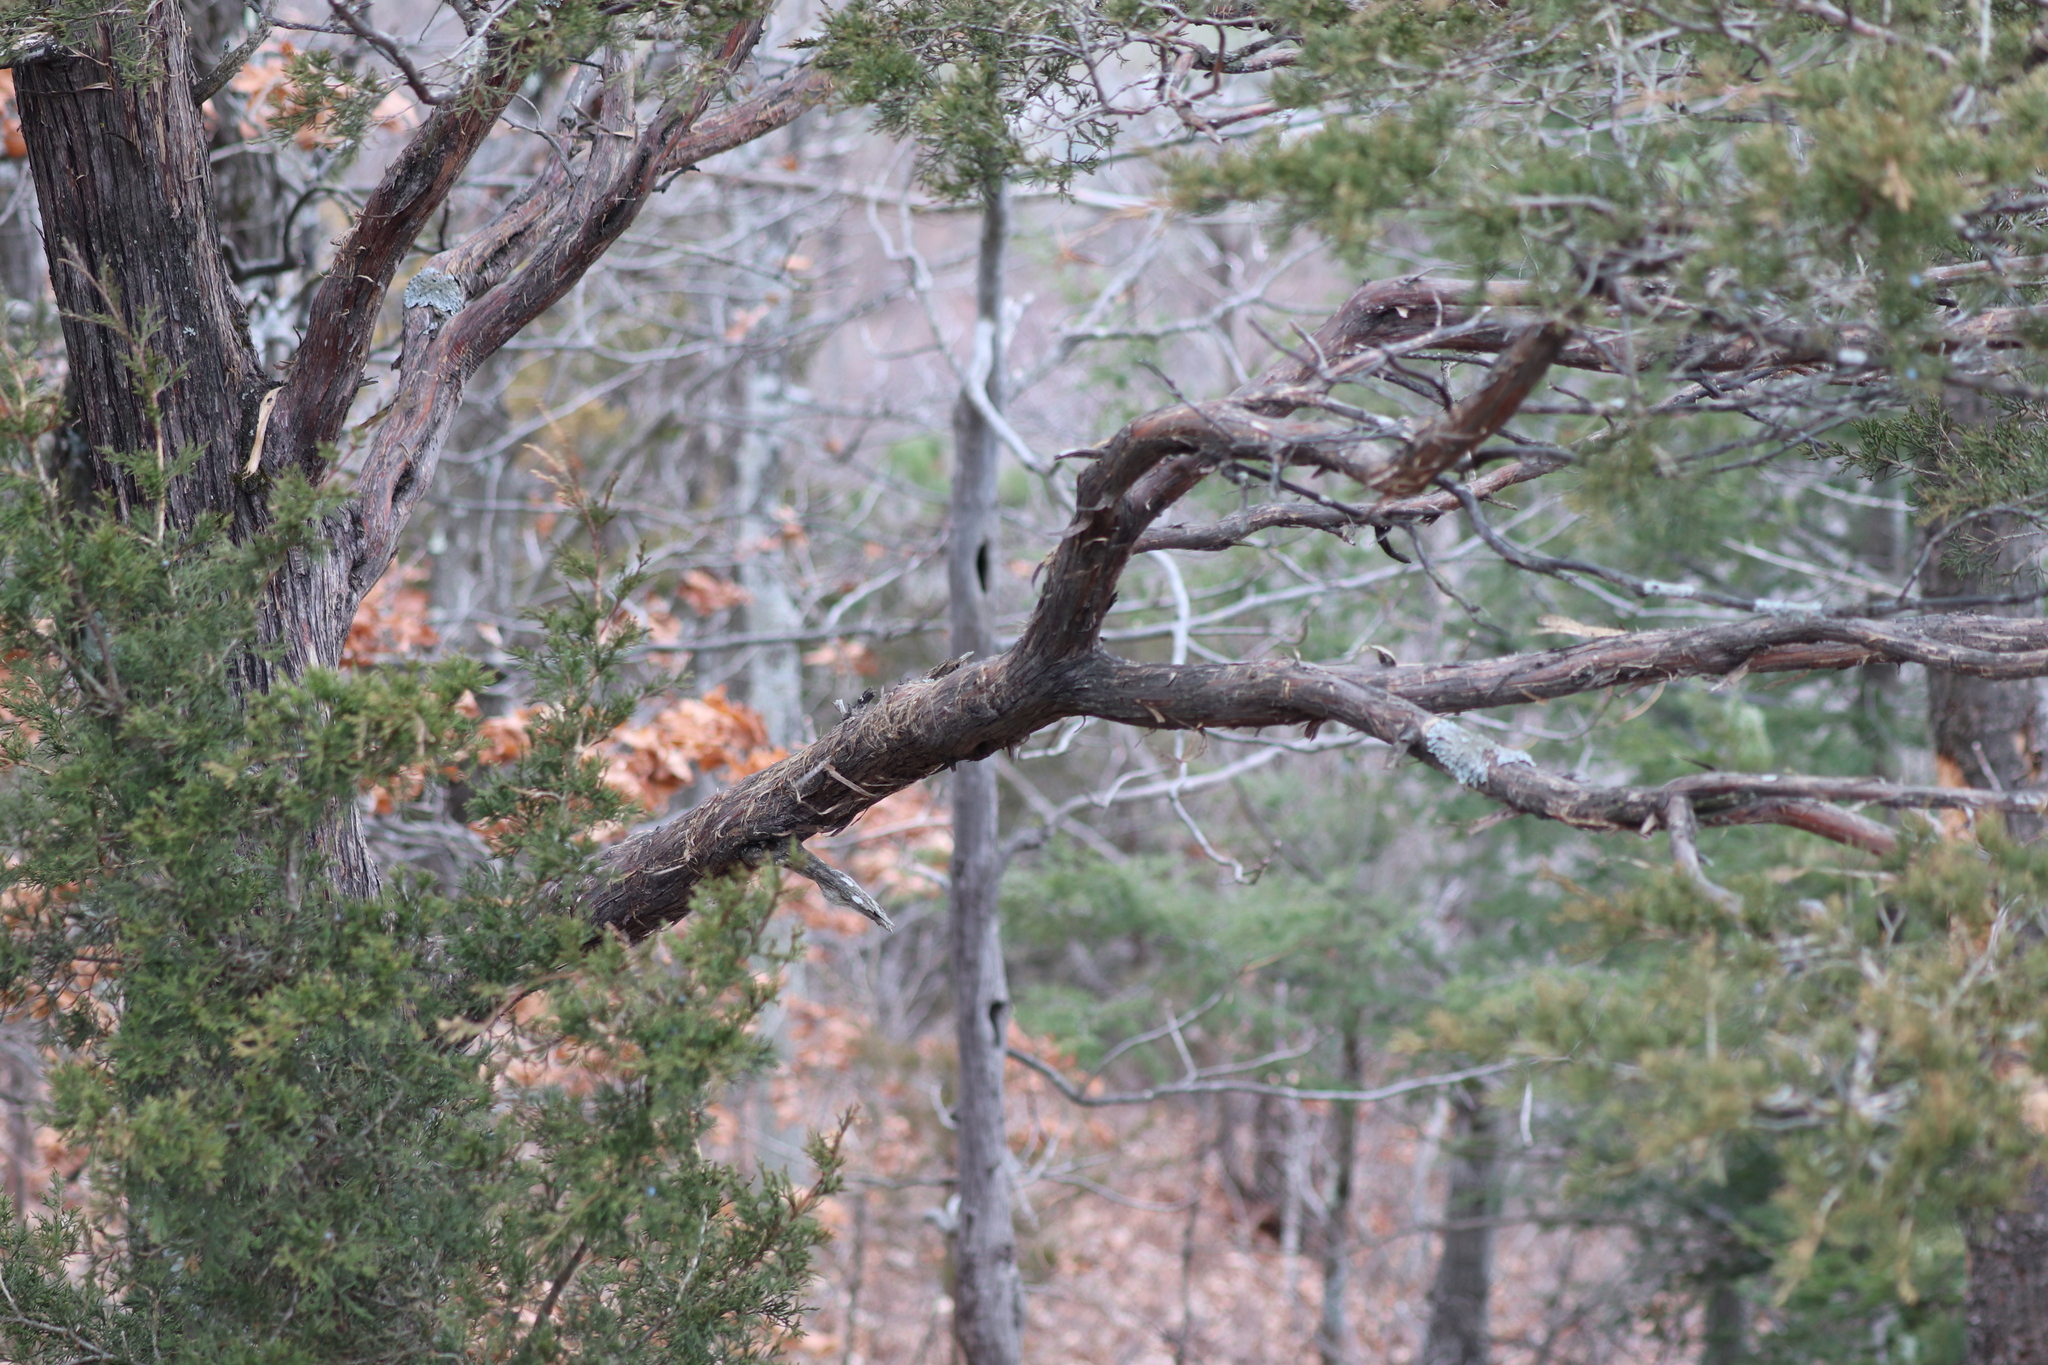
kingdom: Plantae
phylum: Tracheophyta
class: Pinopsida
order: Pinales
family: Cupressaceae
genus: Juniperus
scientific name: Juniperus virginiana
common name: Red juniper
